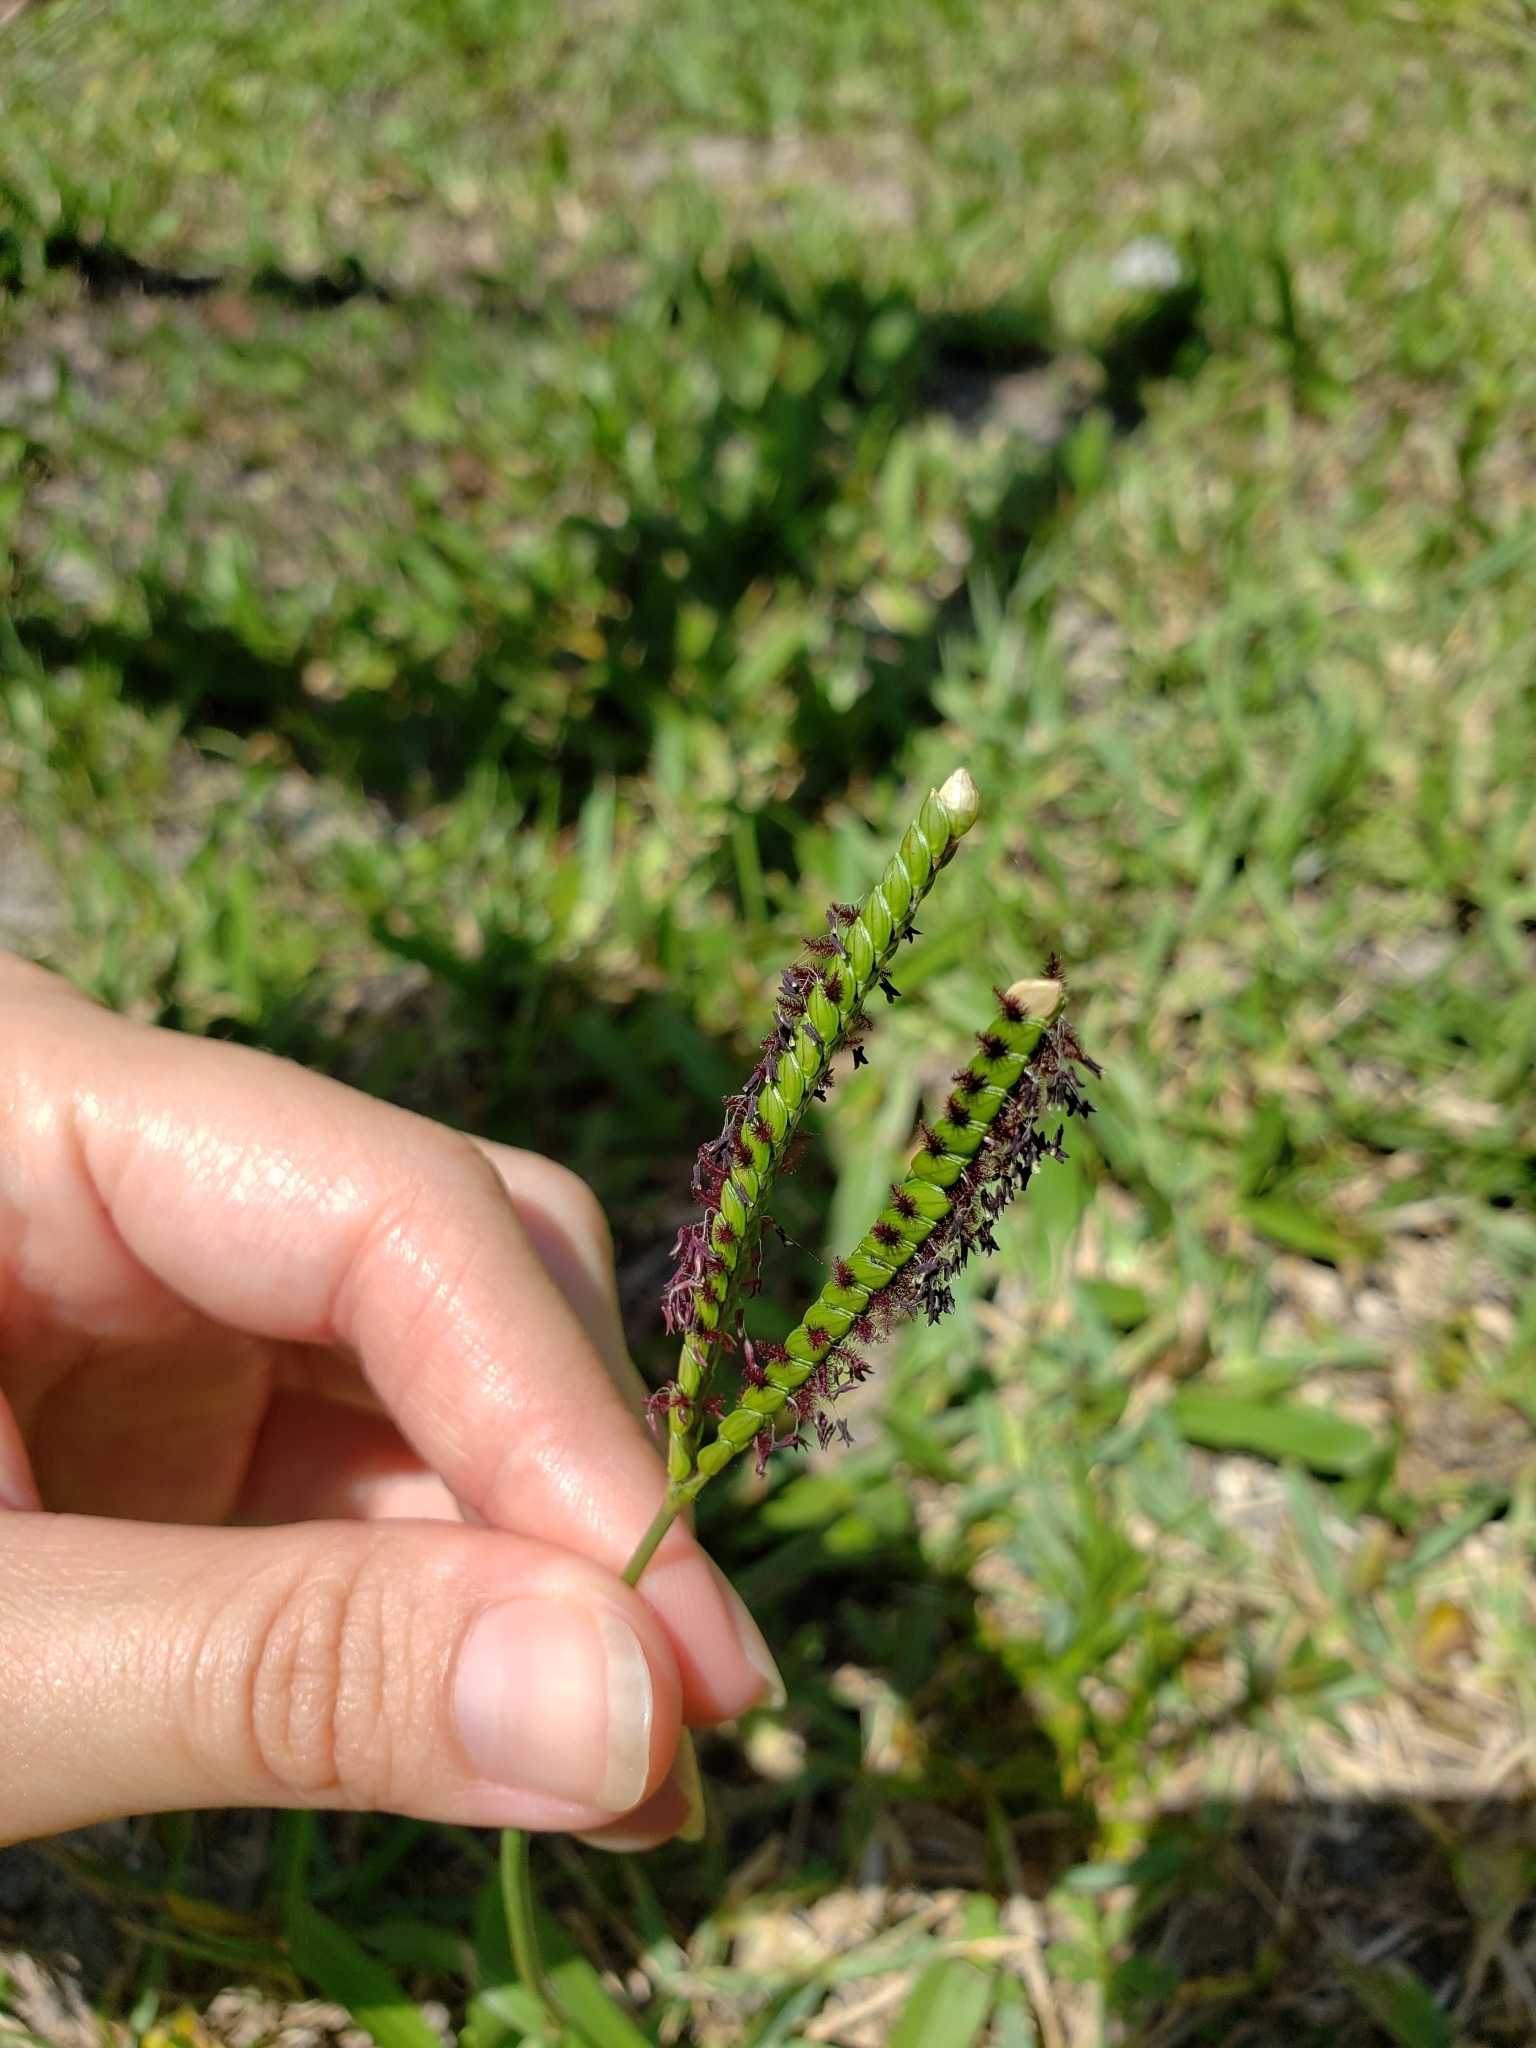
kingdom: Plantae
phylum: Tracheophyta
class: Liliopsida
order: Poales
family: Poaceae
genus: Paspalum
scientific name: Paspalum notatum
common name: Bahiagrass
